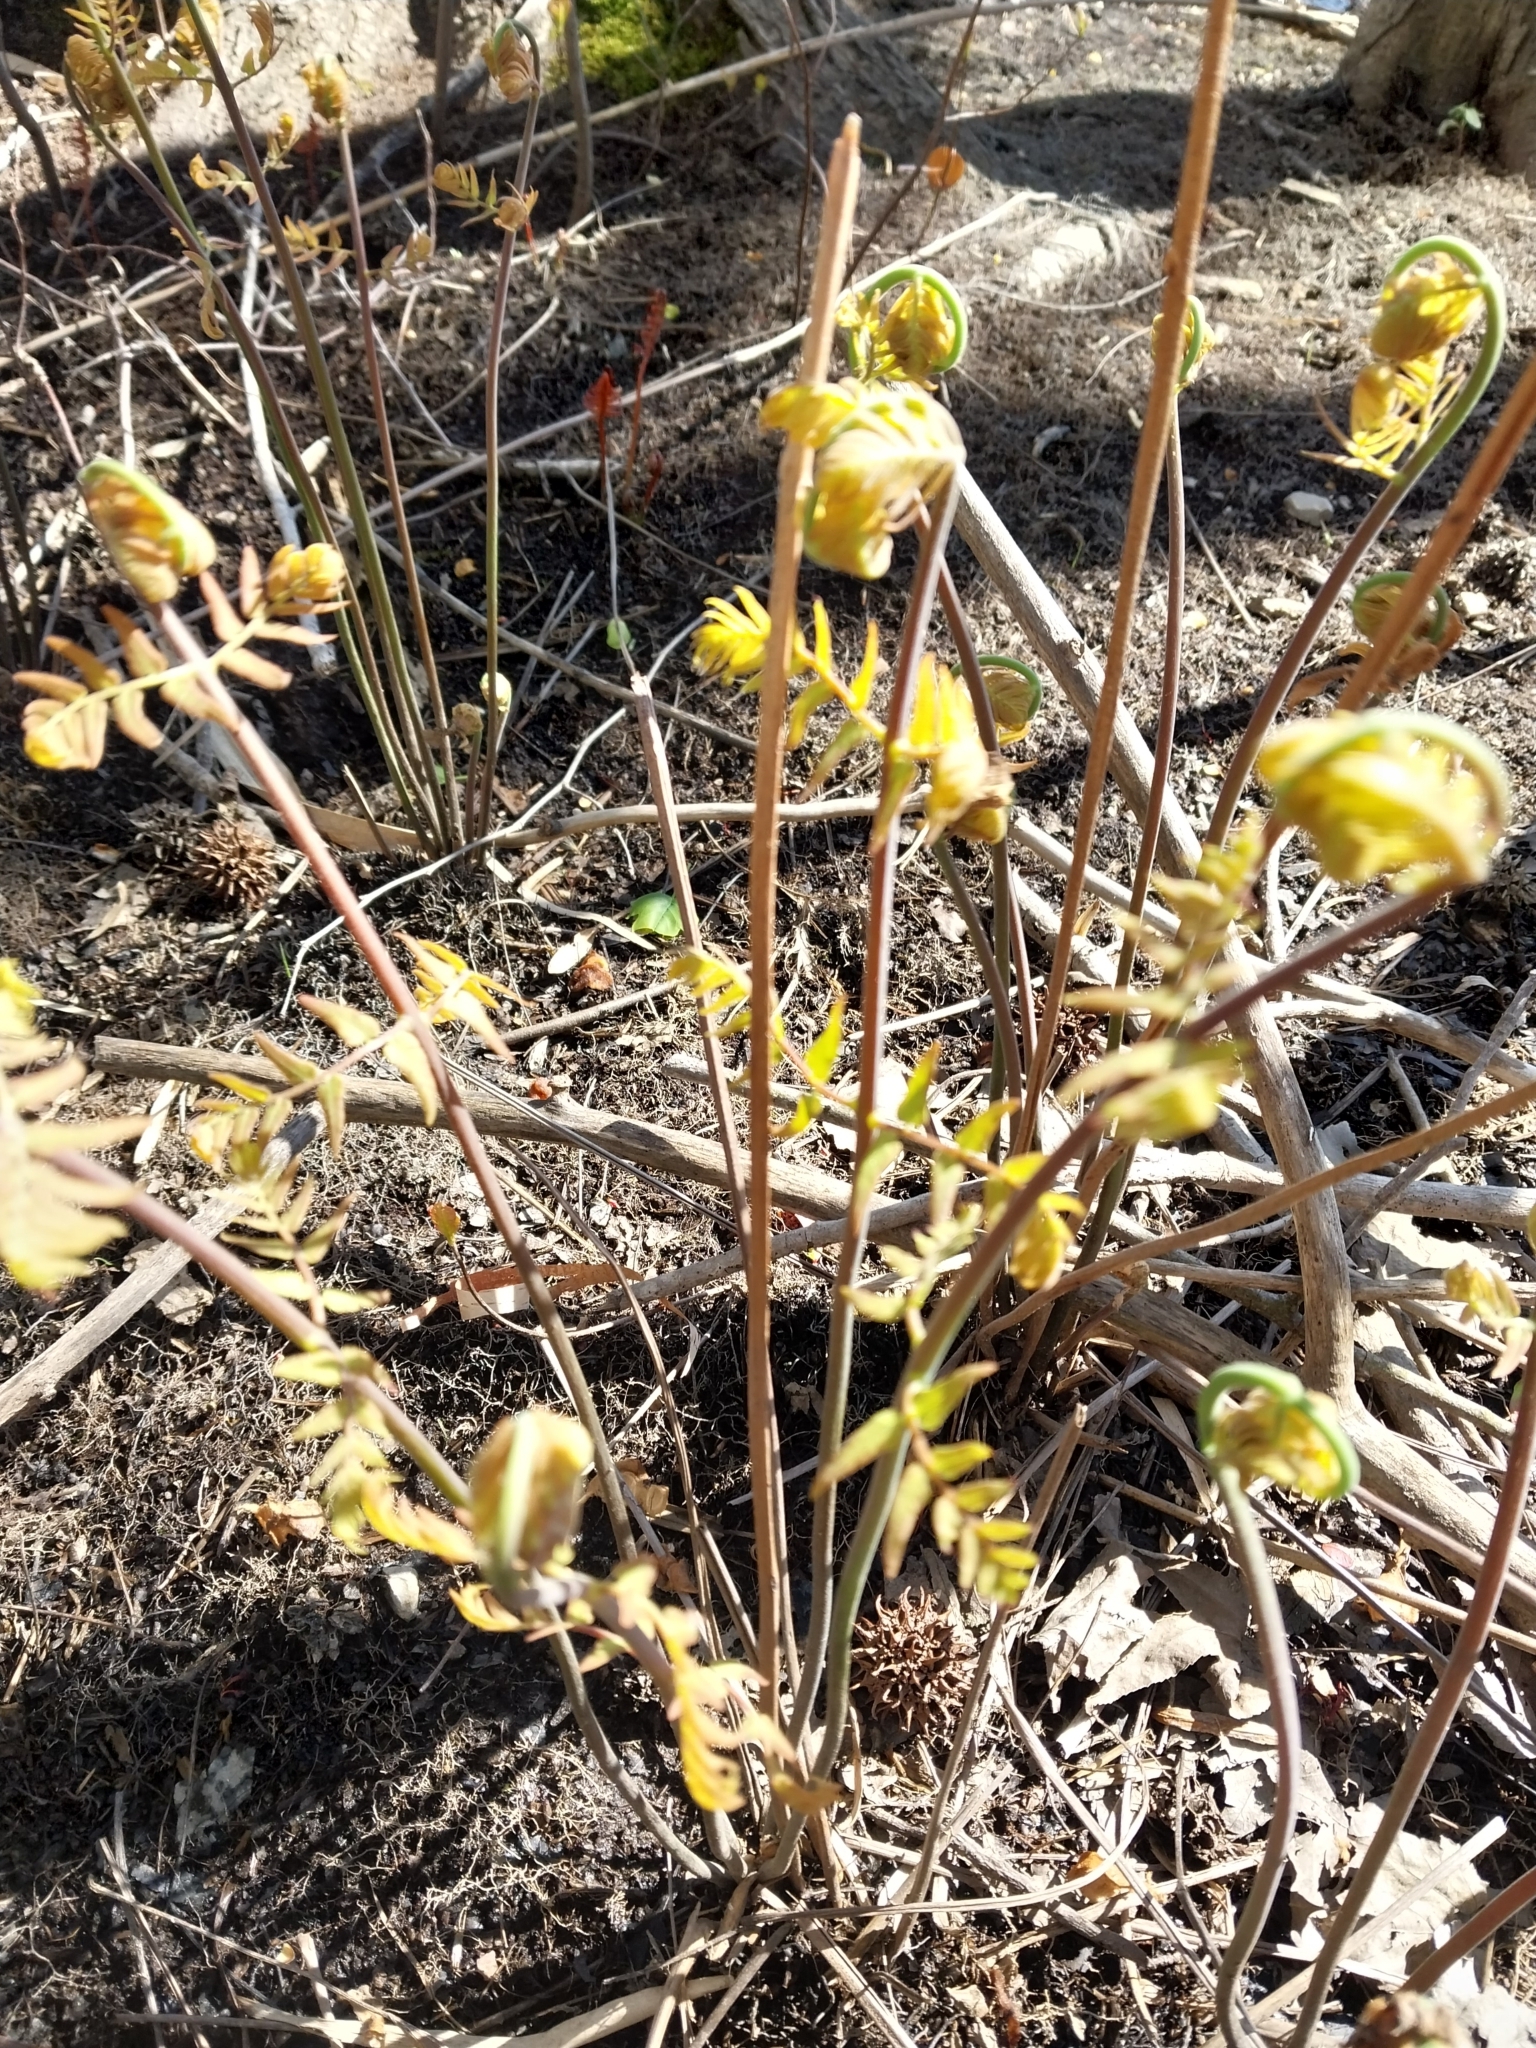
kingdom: Plantae
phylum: Tracheophyta
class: Polypodiopsida
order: Osmundales
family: Osmundaceae
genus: Osmunda
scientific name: Osmunda spectabilis
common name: American royal fern
